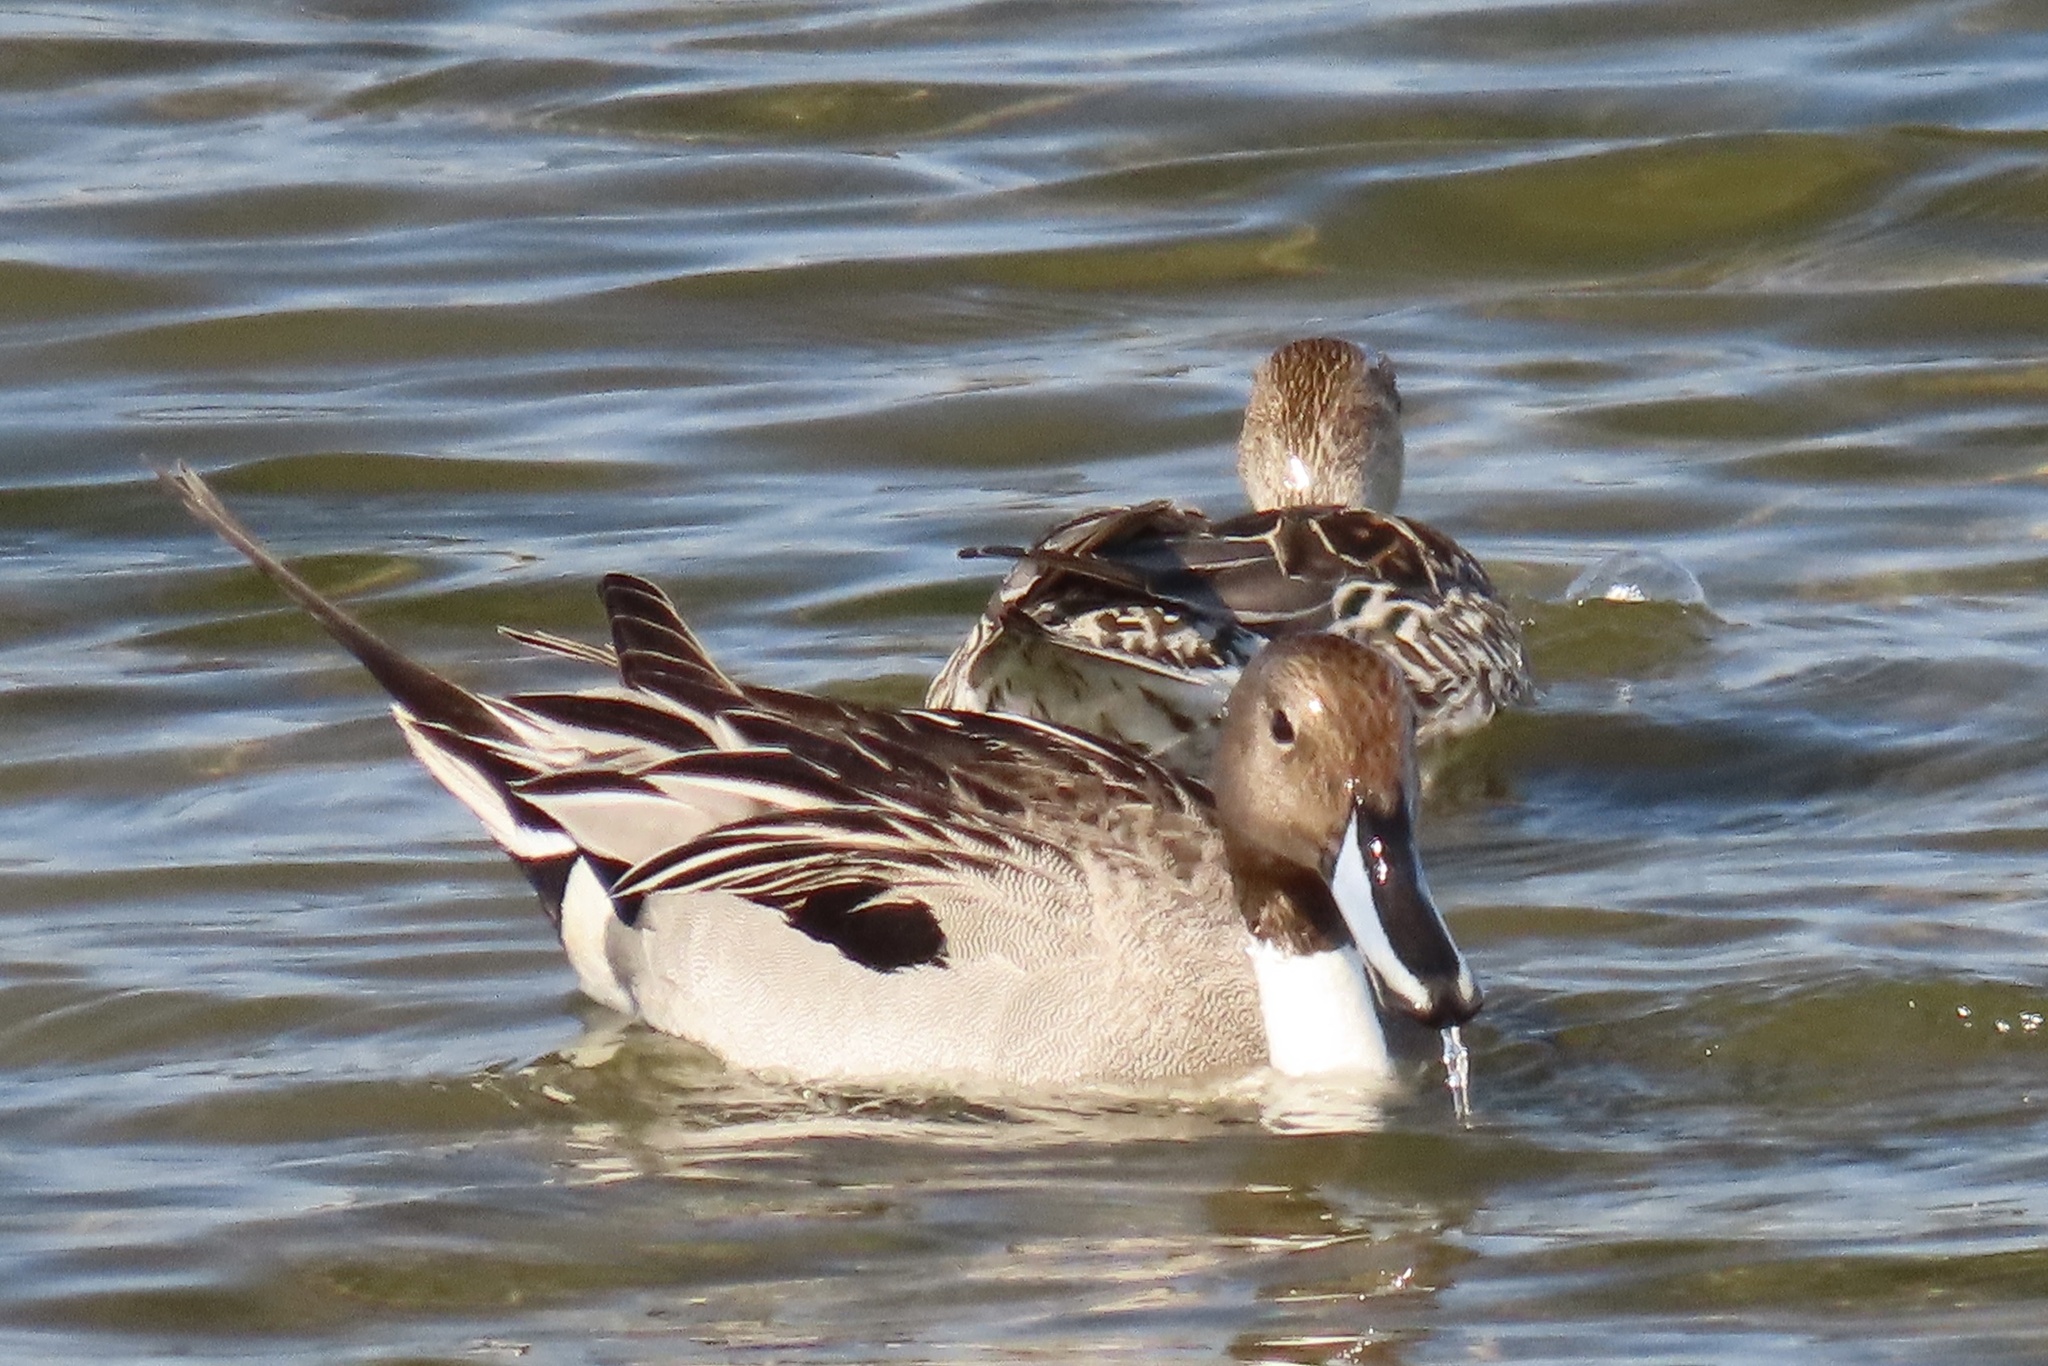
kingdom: Animalia
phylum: Chordata
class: Aves
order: Anseriformes
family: Anatidae
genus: Anas
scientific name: Anas acuta
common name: Northern pintail
